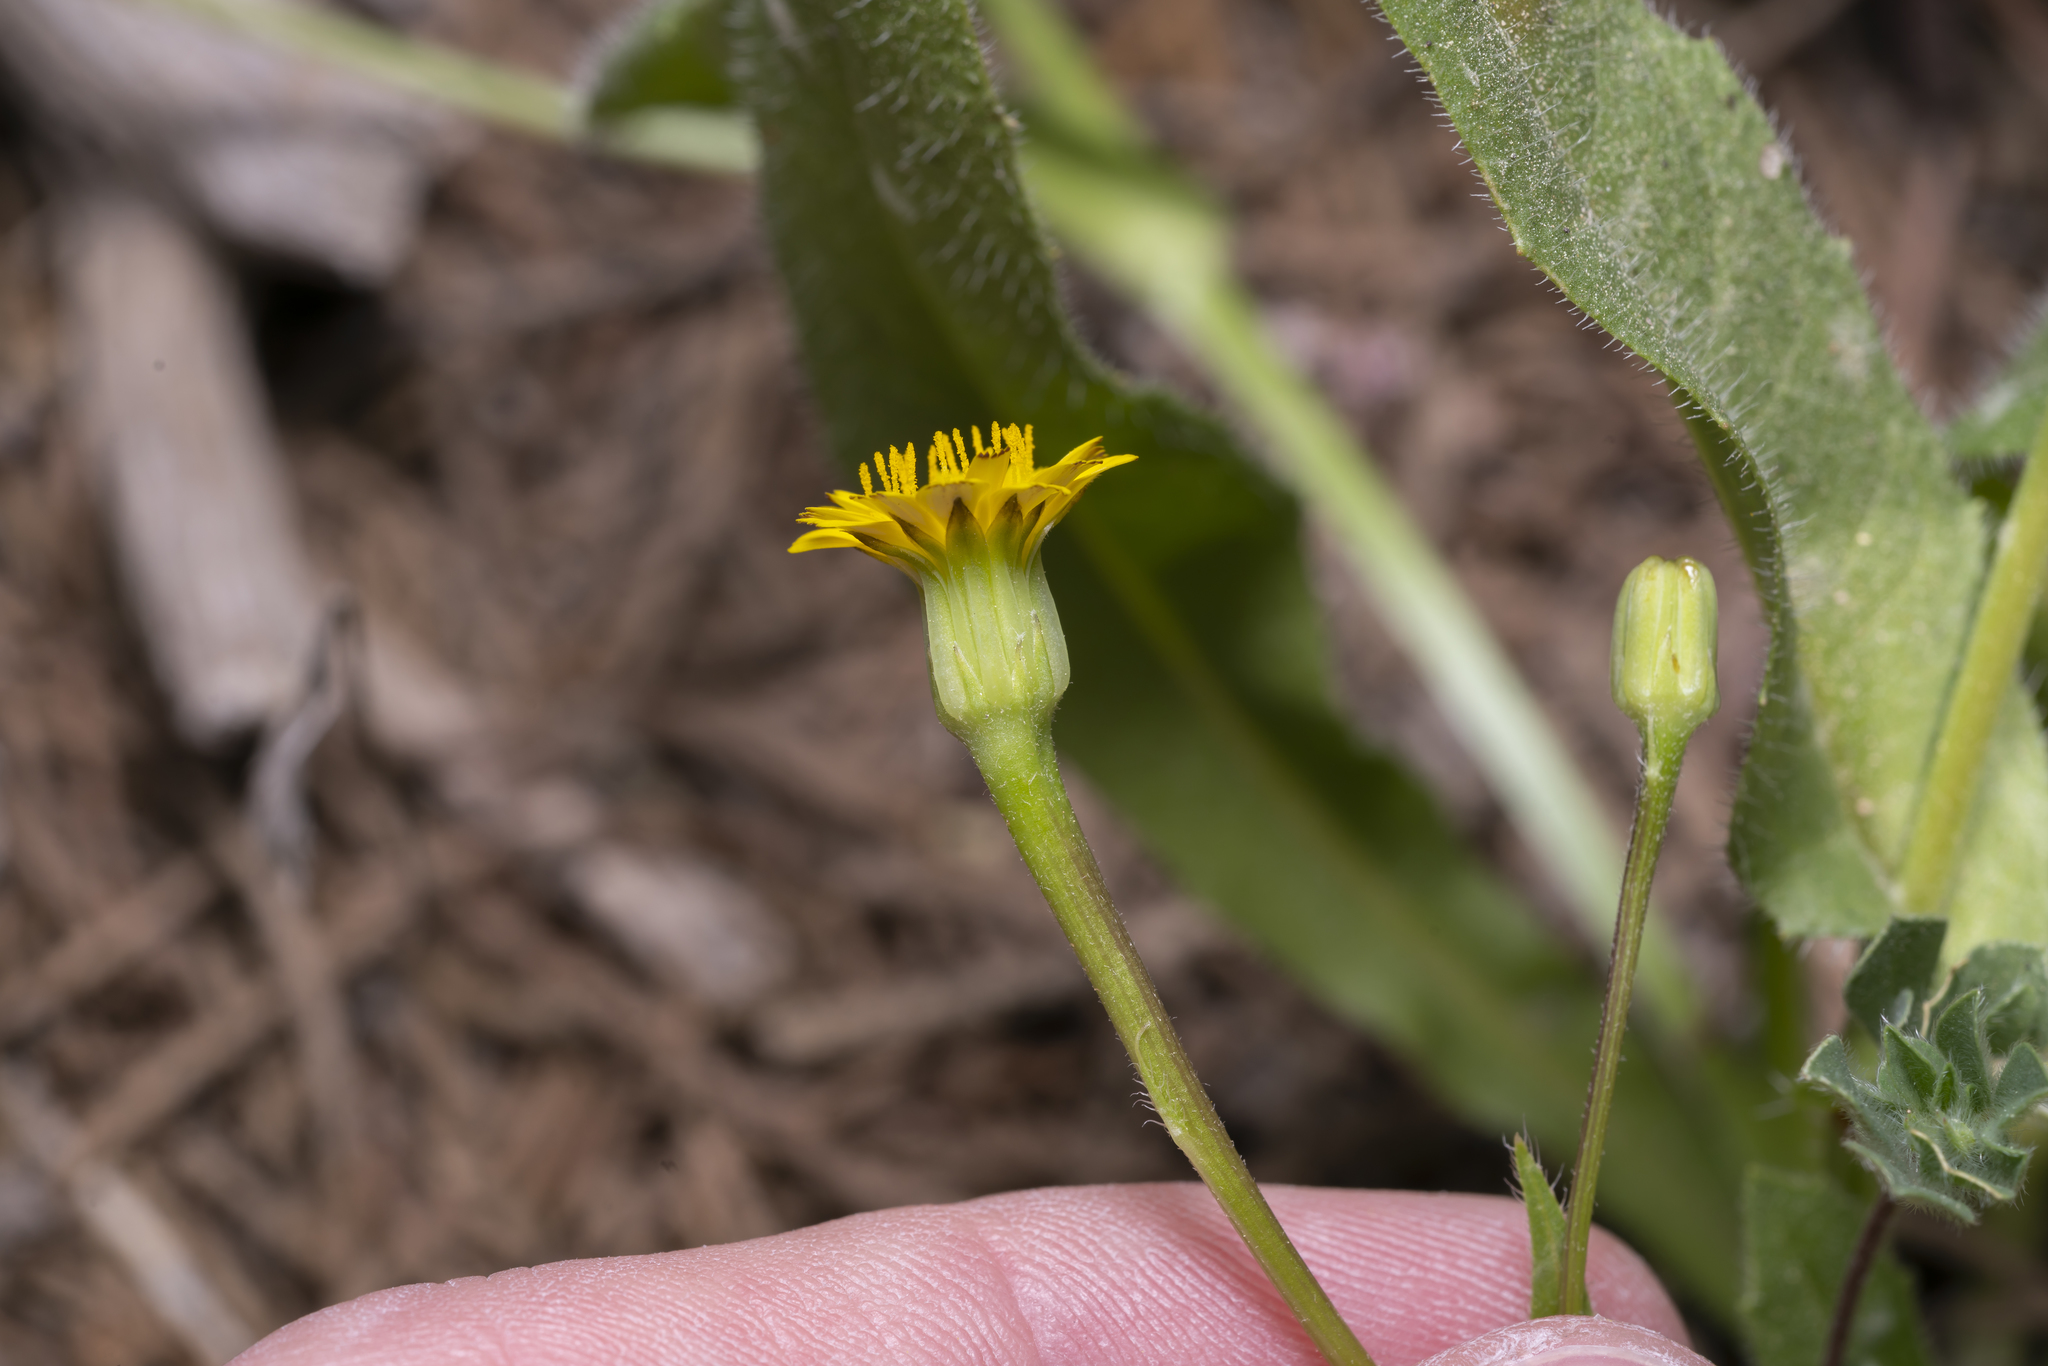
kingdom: Plantae
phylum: Tracheophyta
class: Magnoliopsida
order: Asterales
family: Asteraceae
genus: Hedypnois
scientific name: Hedypnois rhagadioloides
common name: Cretan weed
